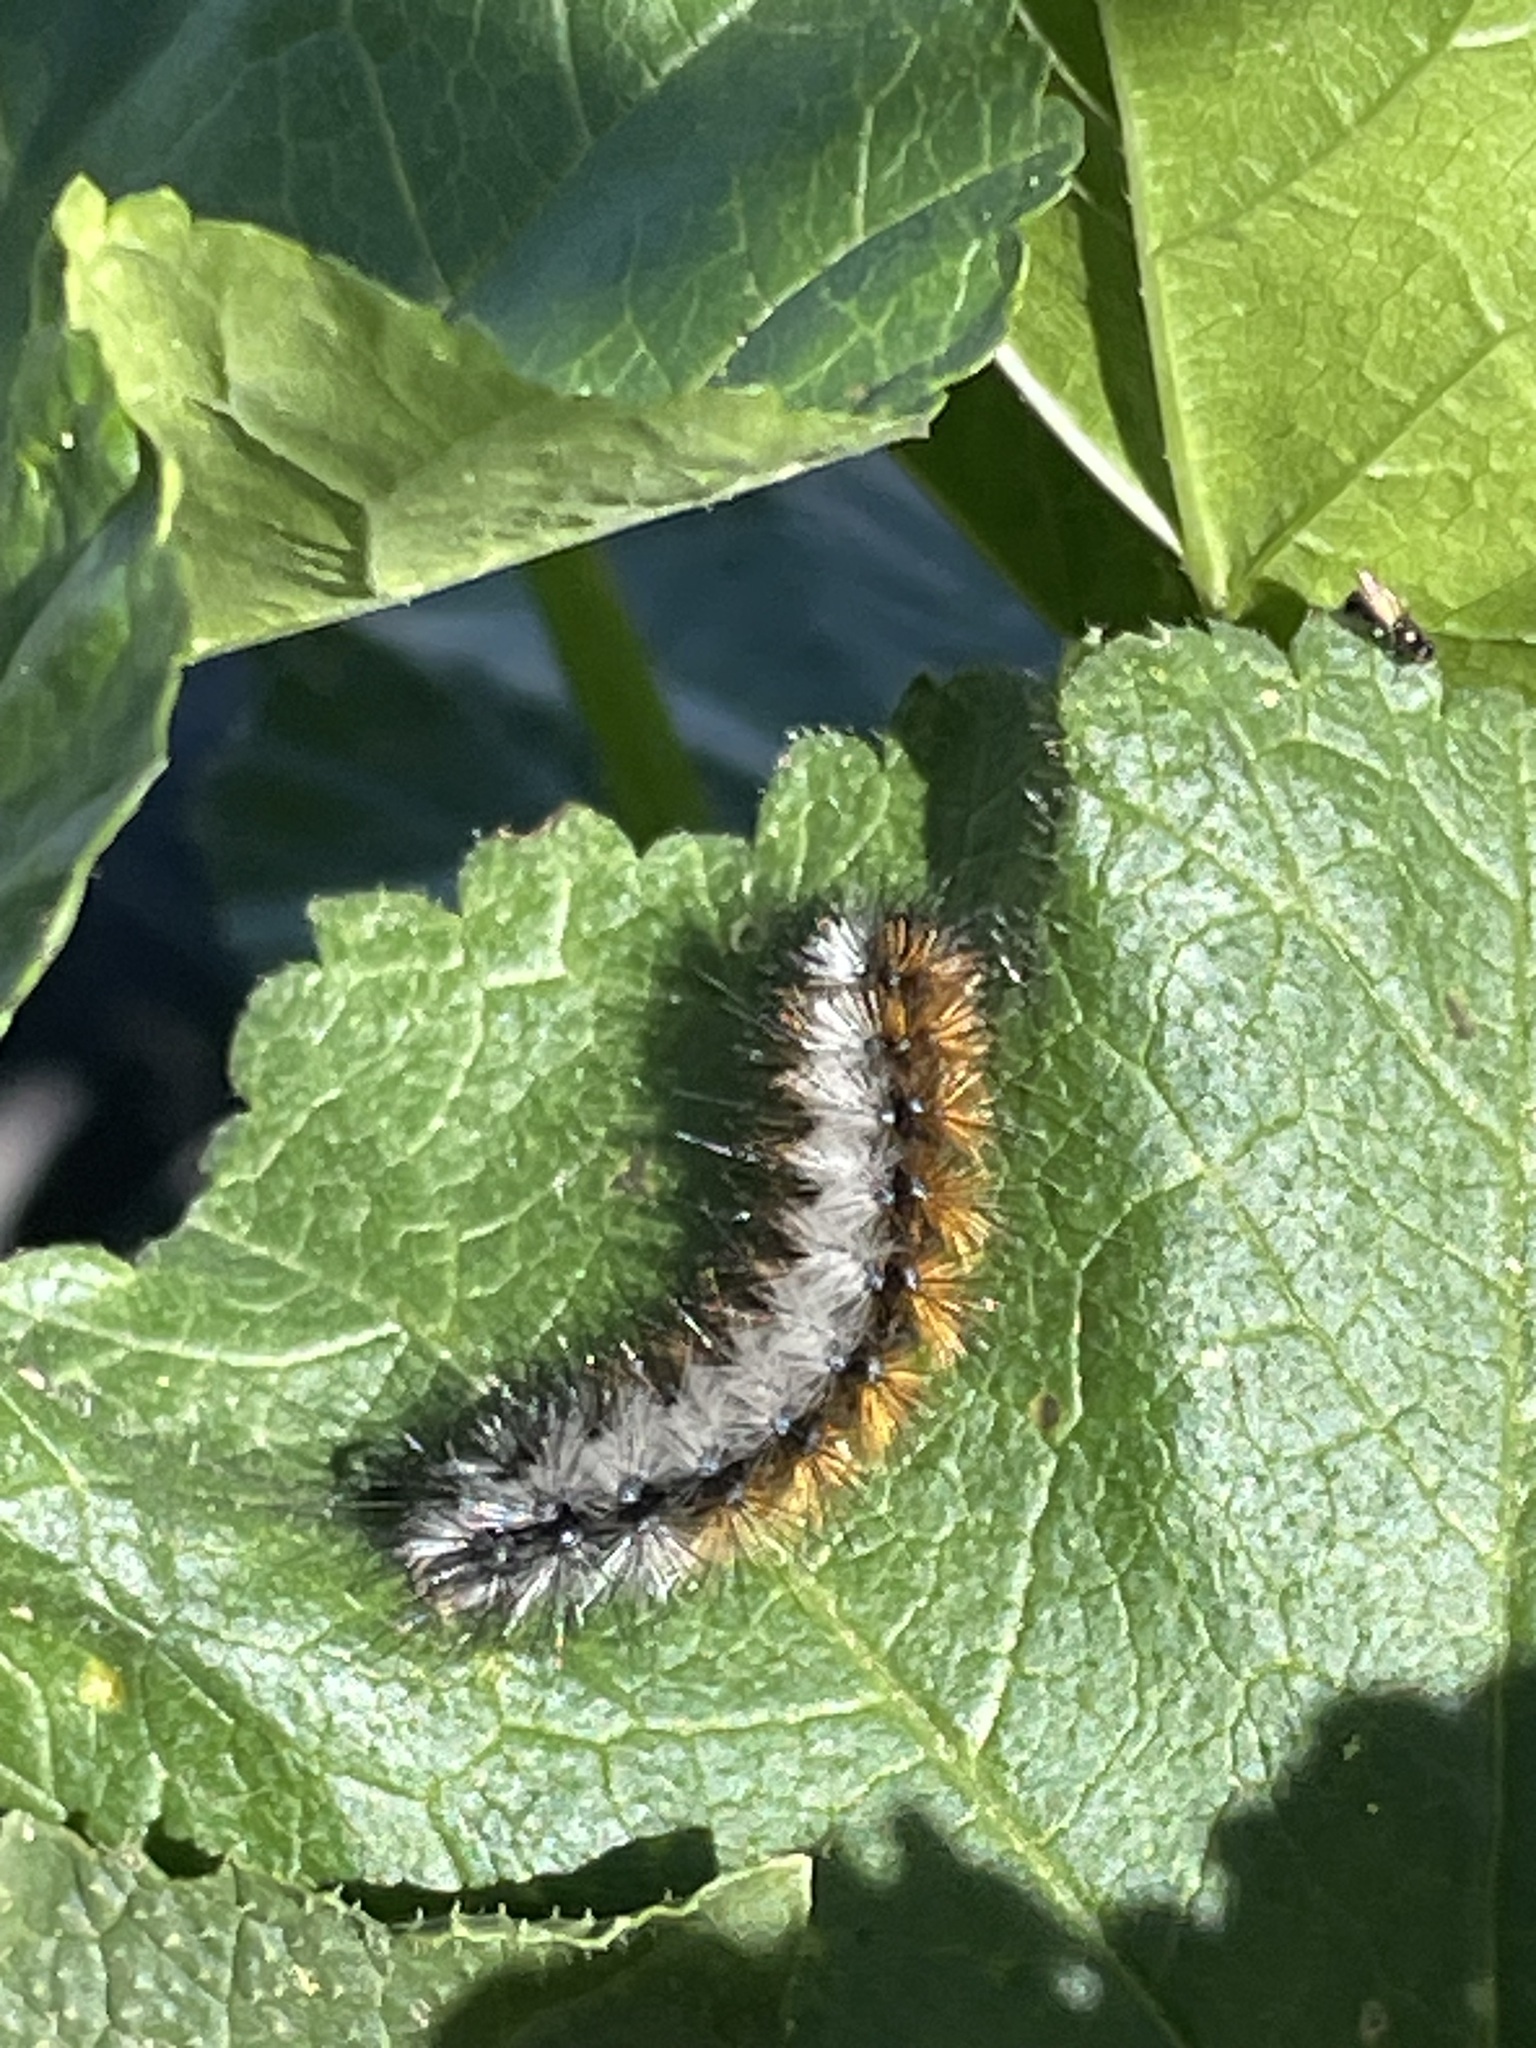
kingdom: Animalia
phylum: Arthropoda
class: Insecta
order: Lepidoptera
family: Erebidae
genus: Ocnogyna
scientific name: Ocnogyna boeticum
